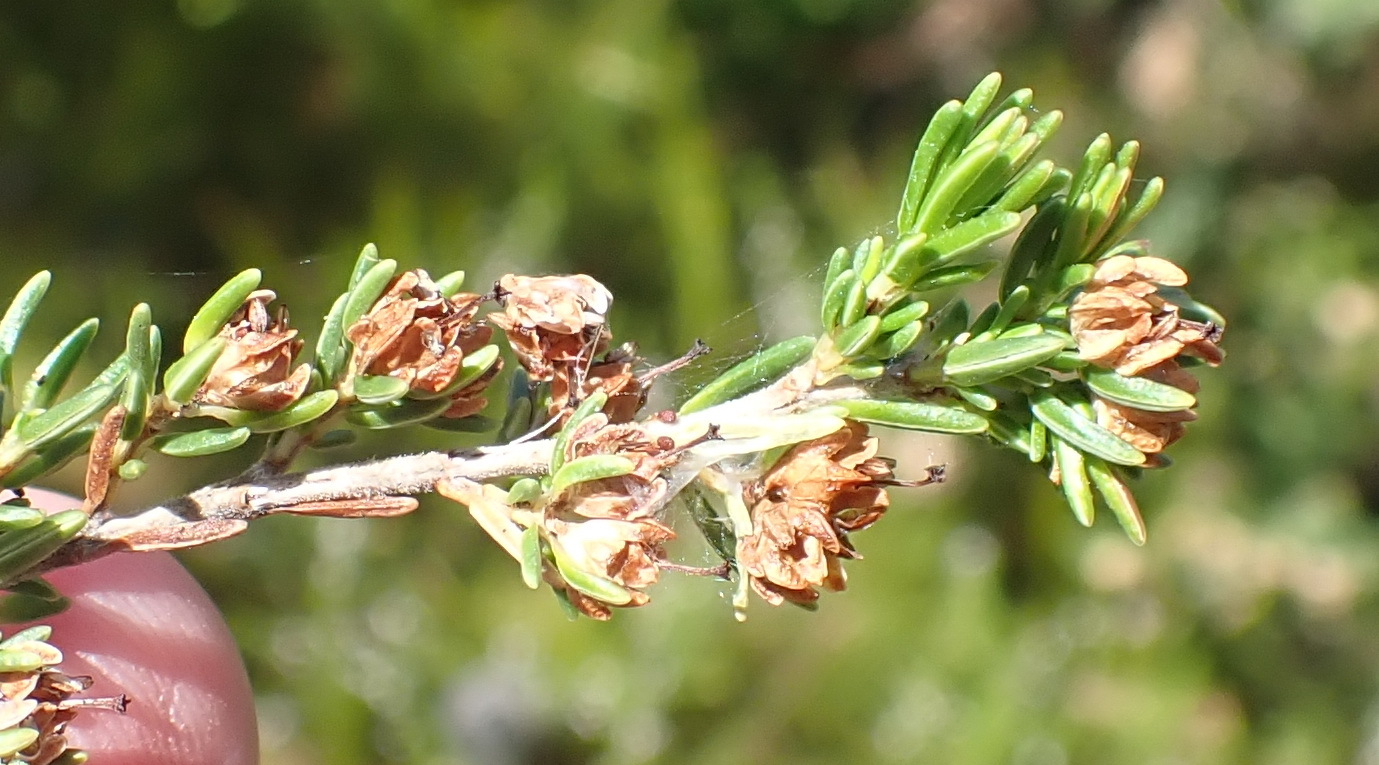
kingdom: Plantae
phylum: Tracheophyta
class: Magnoliopsida
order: Ericales
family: Ericaceae
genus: Erica
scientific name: Erica glumiflora
